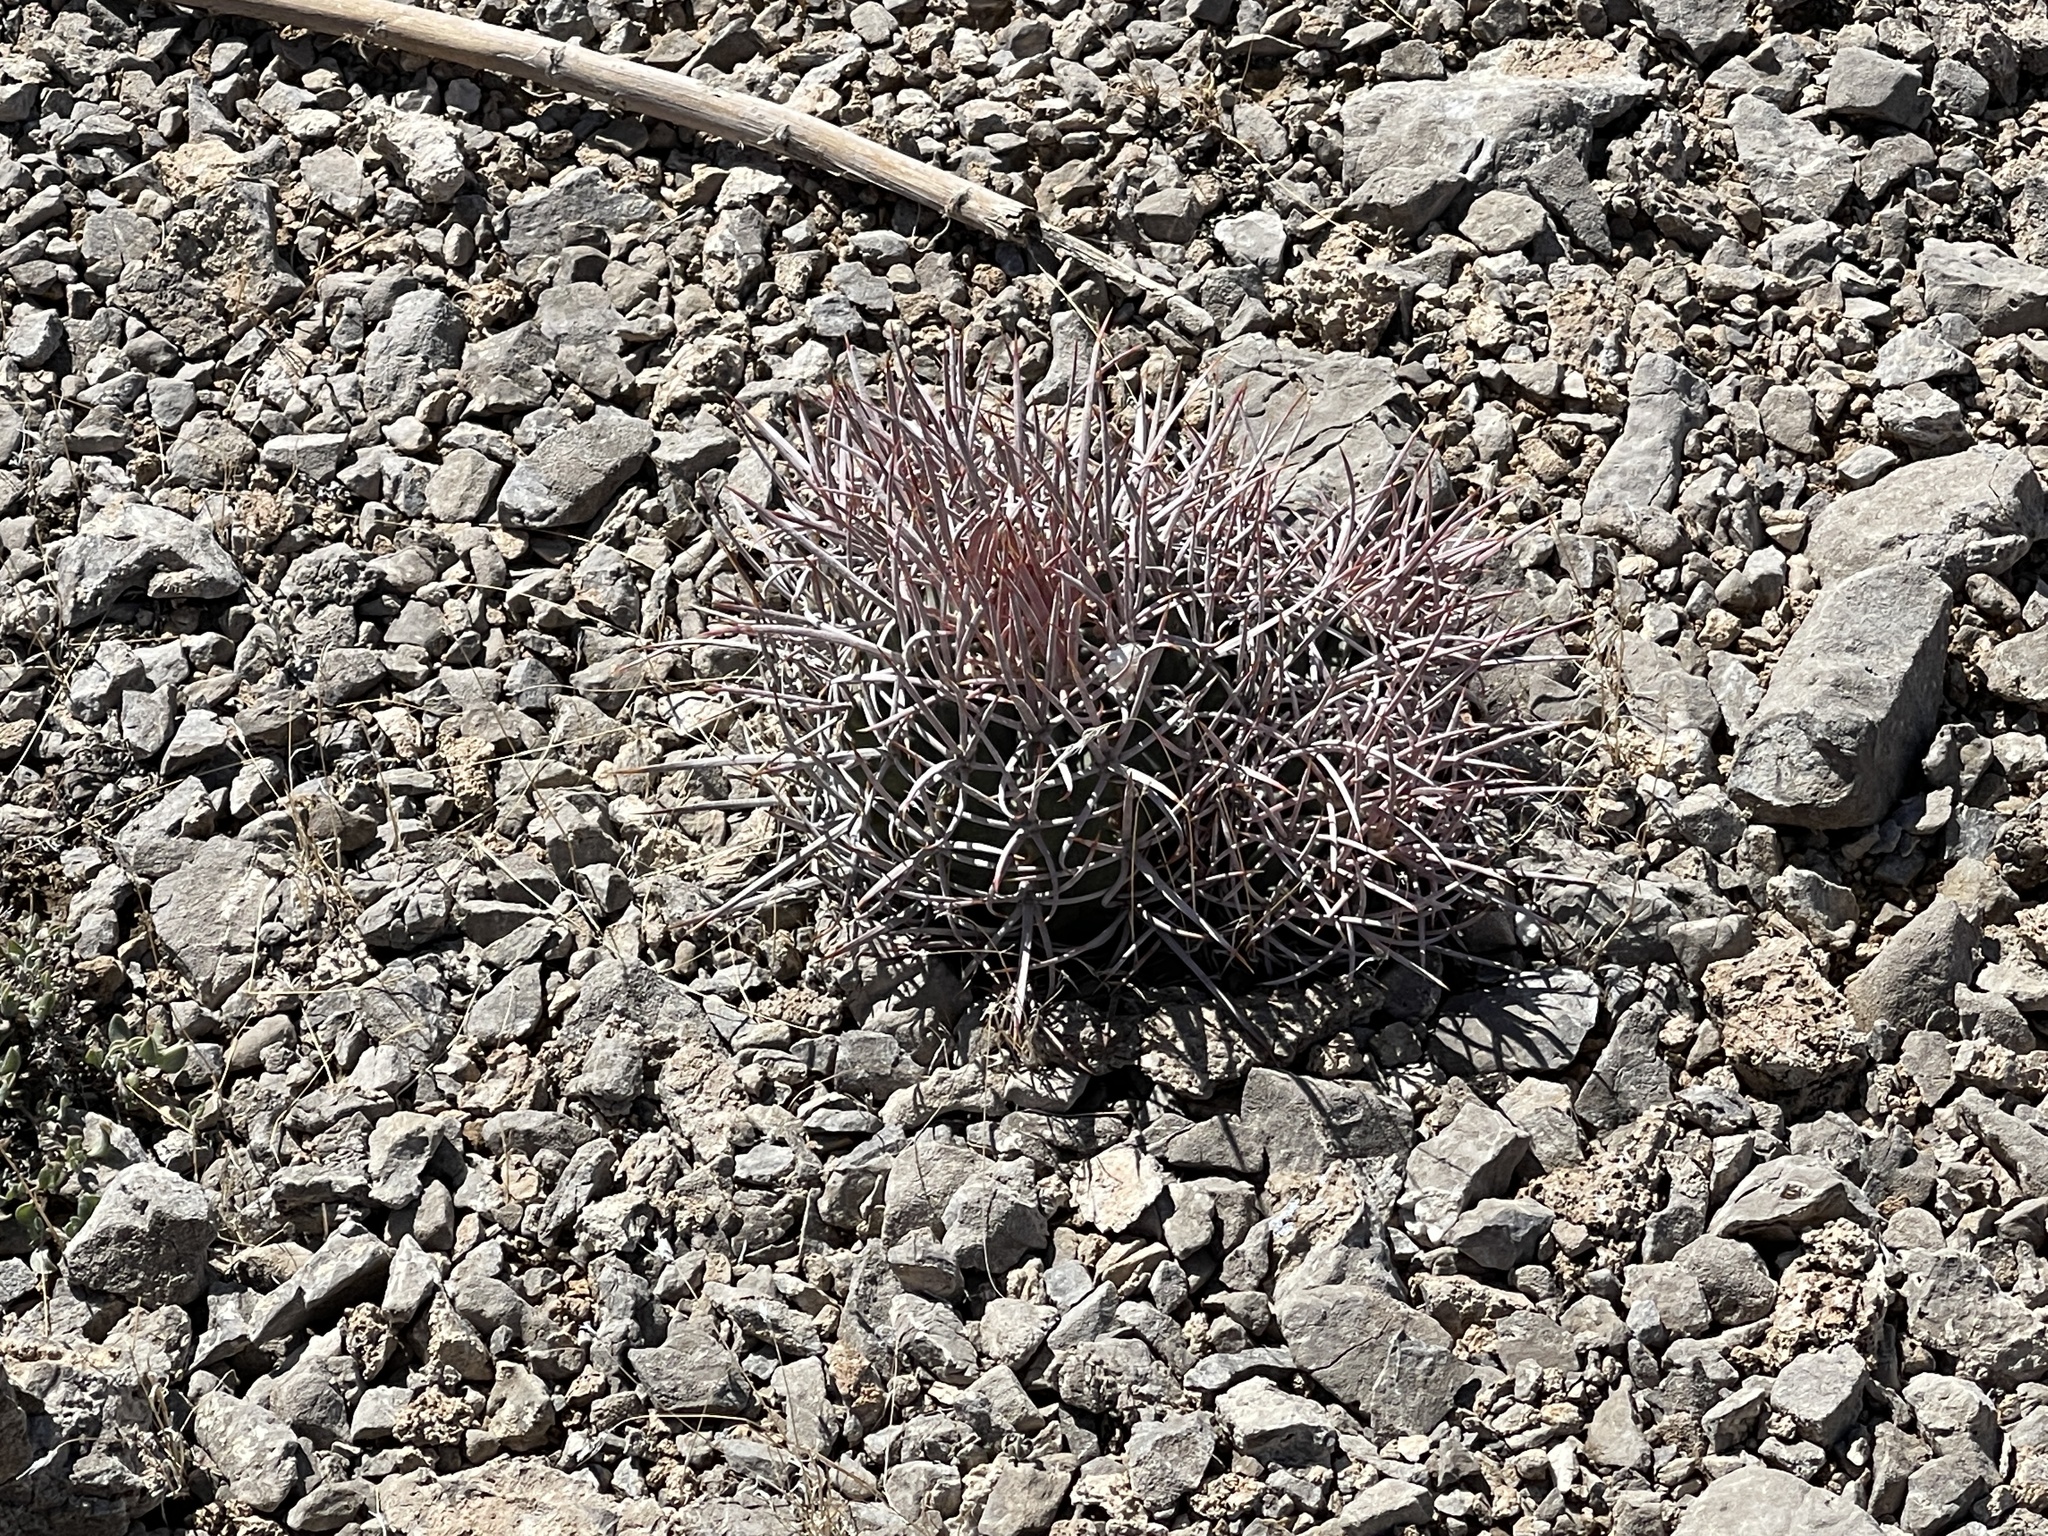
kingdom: Plantae
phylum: Tracheophyta
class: Magnoliopsida
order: Caryophyllales
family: Cactaceae
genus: Echinocactus
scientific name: Echinocactus polycephalus
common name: Cottontop cactus
